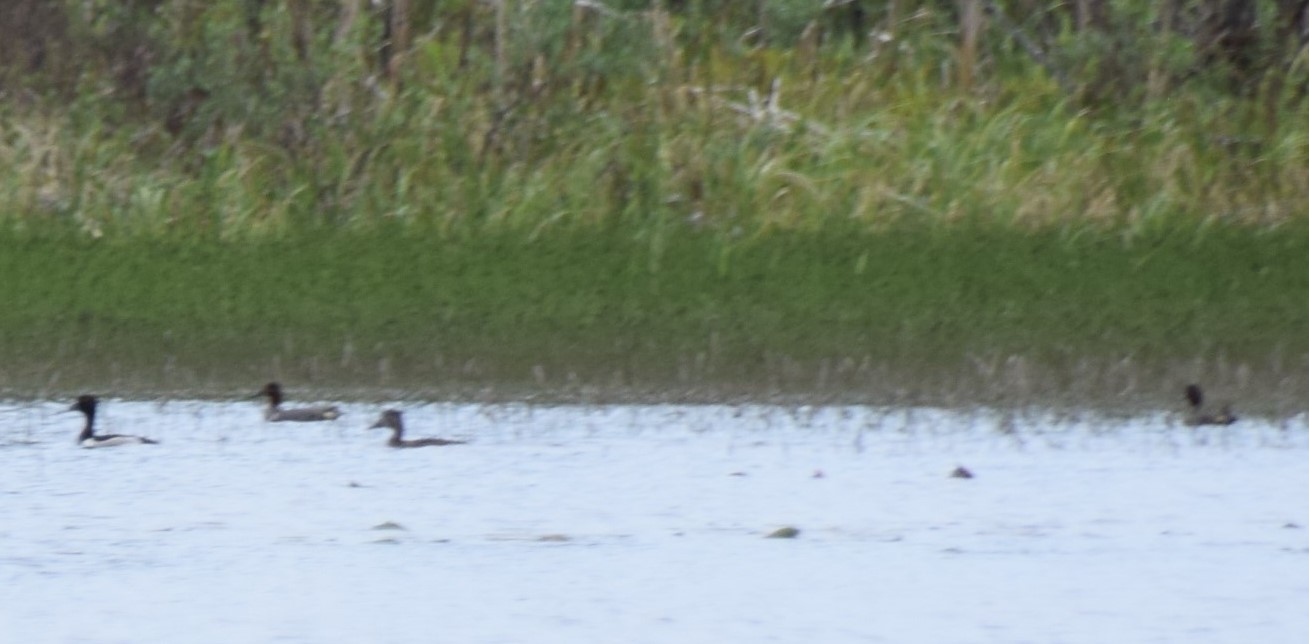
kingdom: Animalia
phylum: Chordata
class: Aves
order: Anseriformes
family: Anatidae
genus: Aythya
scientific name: Aythya collaris
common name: Ring-necked duck
